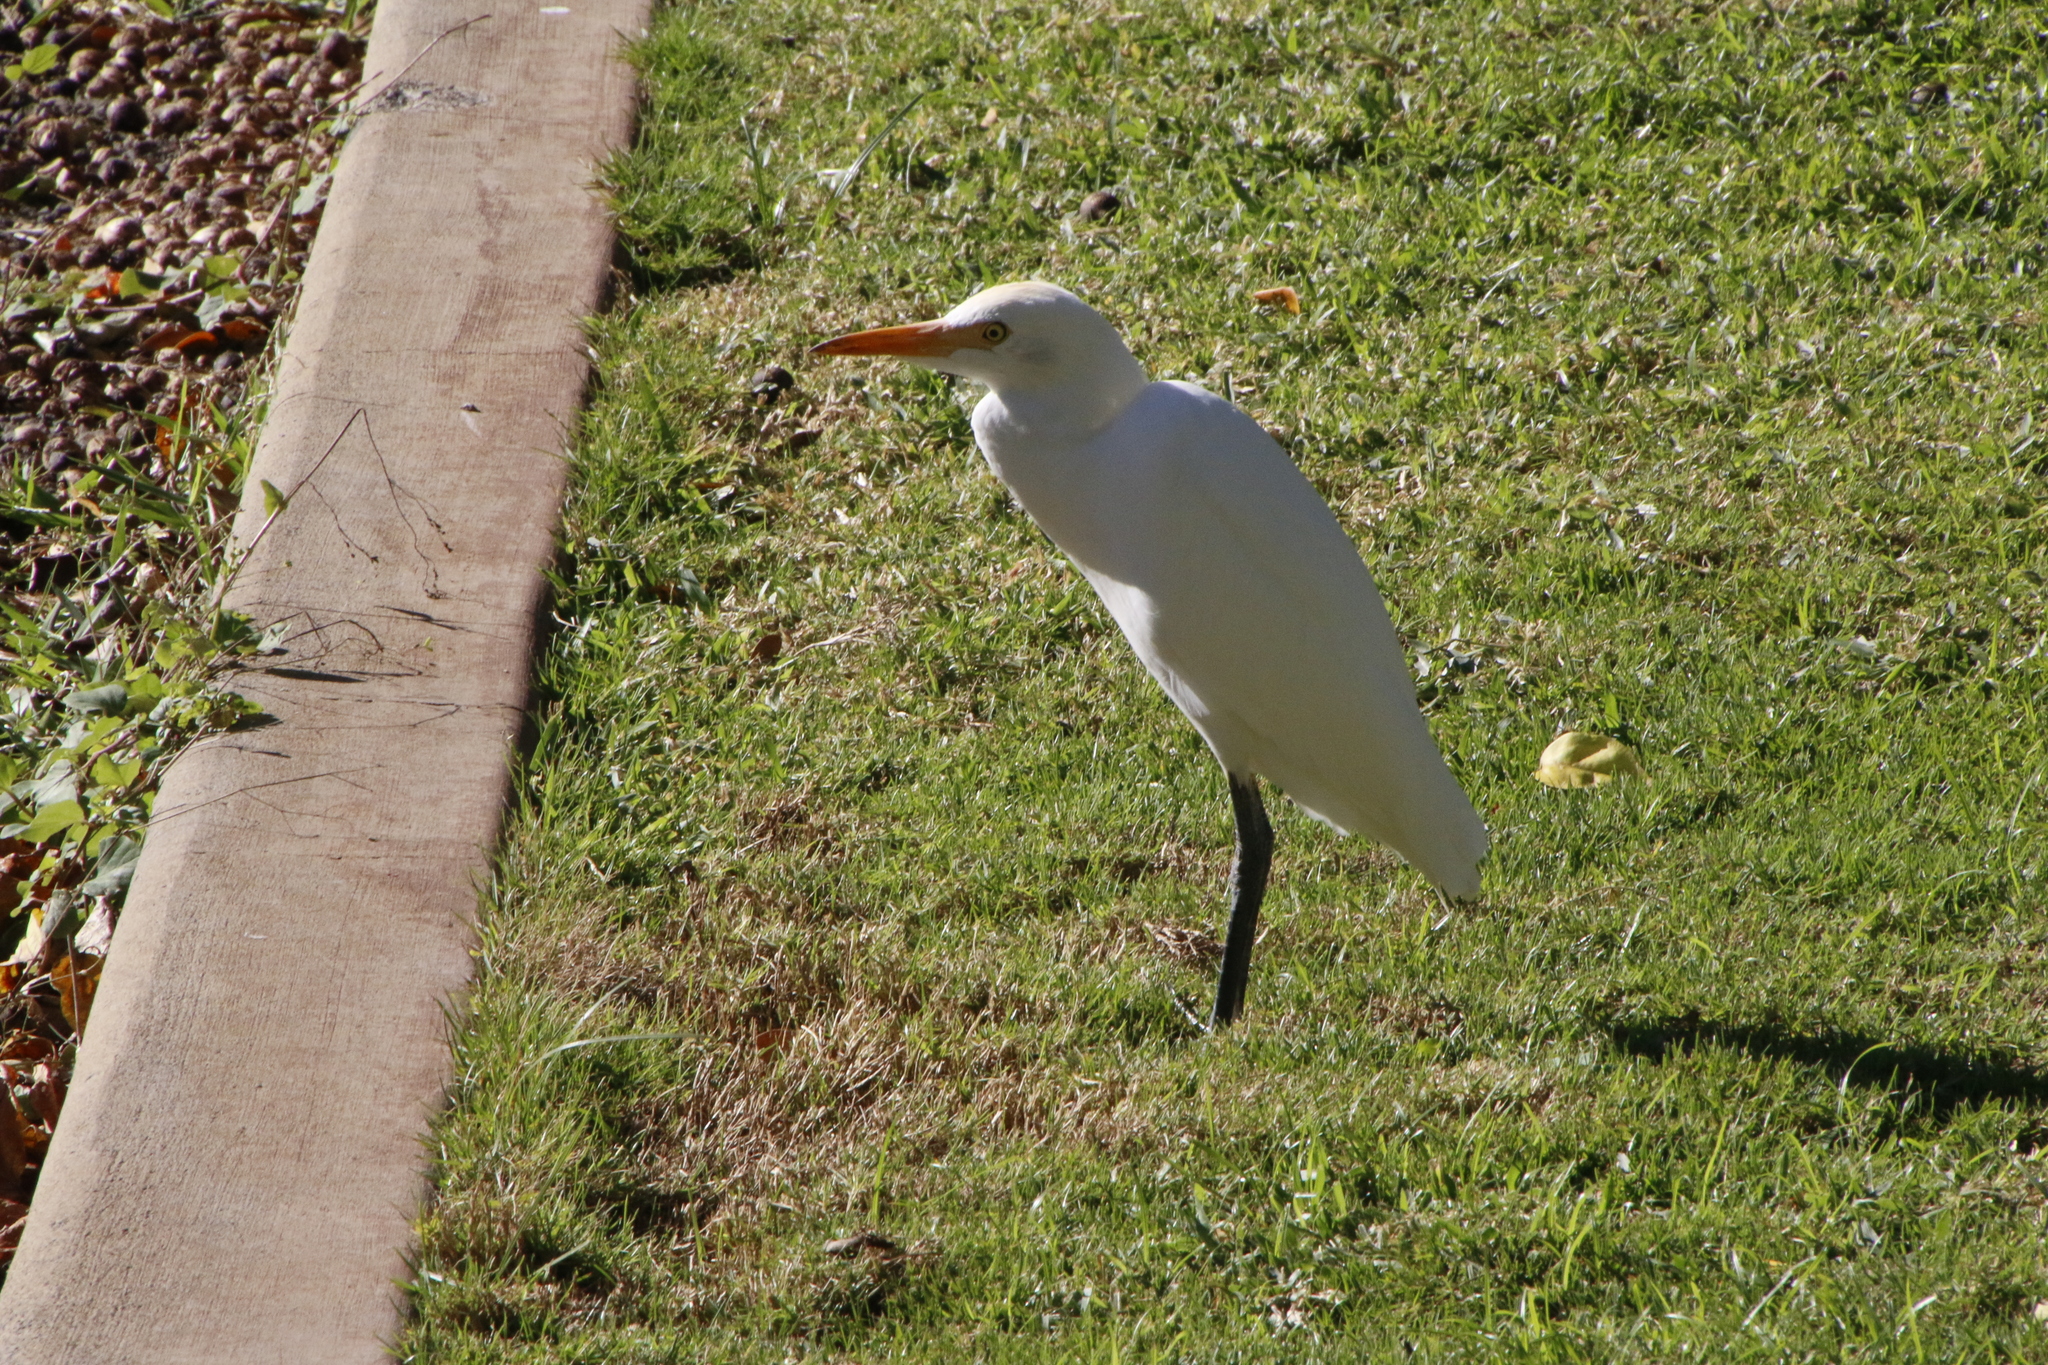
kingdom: Animalia
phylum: Chordata
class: Aves
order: Pelecaniformes
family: Ardeidae
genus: Bubulcus
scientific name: Bubulcus ibis
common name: Cattle egret
